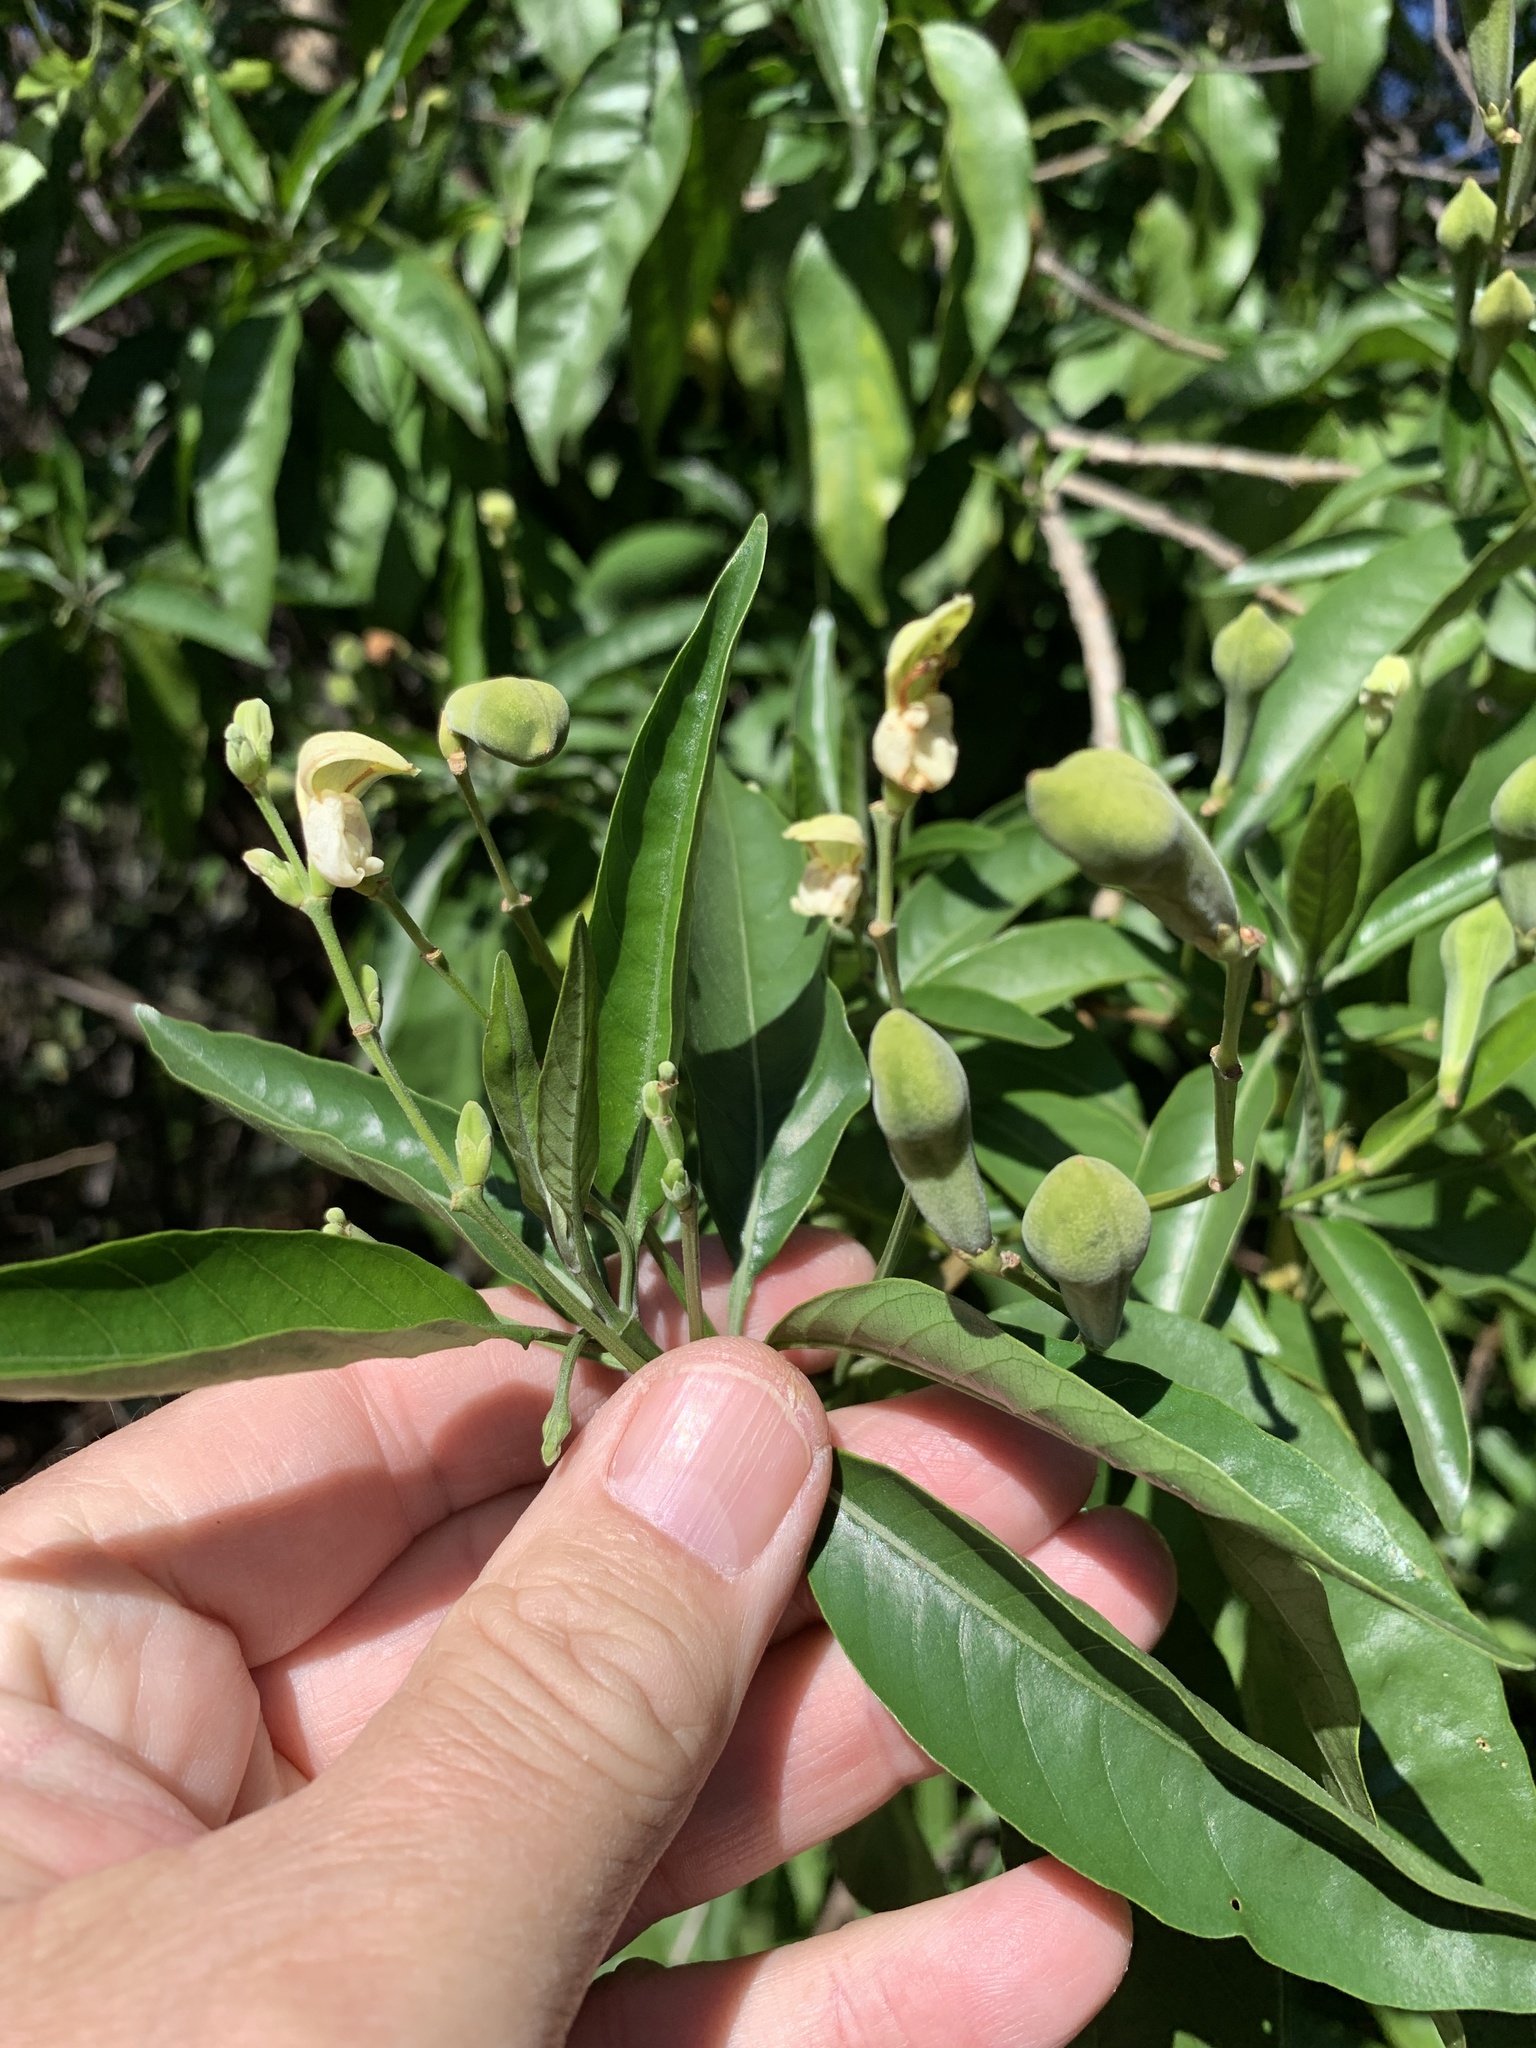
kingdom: Plantae
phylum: Tracheophyta
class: Magnoliopsida
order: Lamiales
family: Acanthaceae
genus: Justicia
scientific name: Justicia aconitiflora
